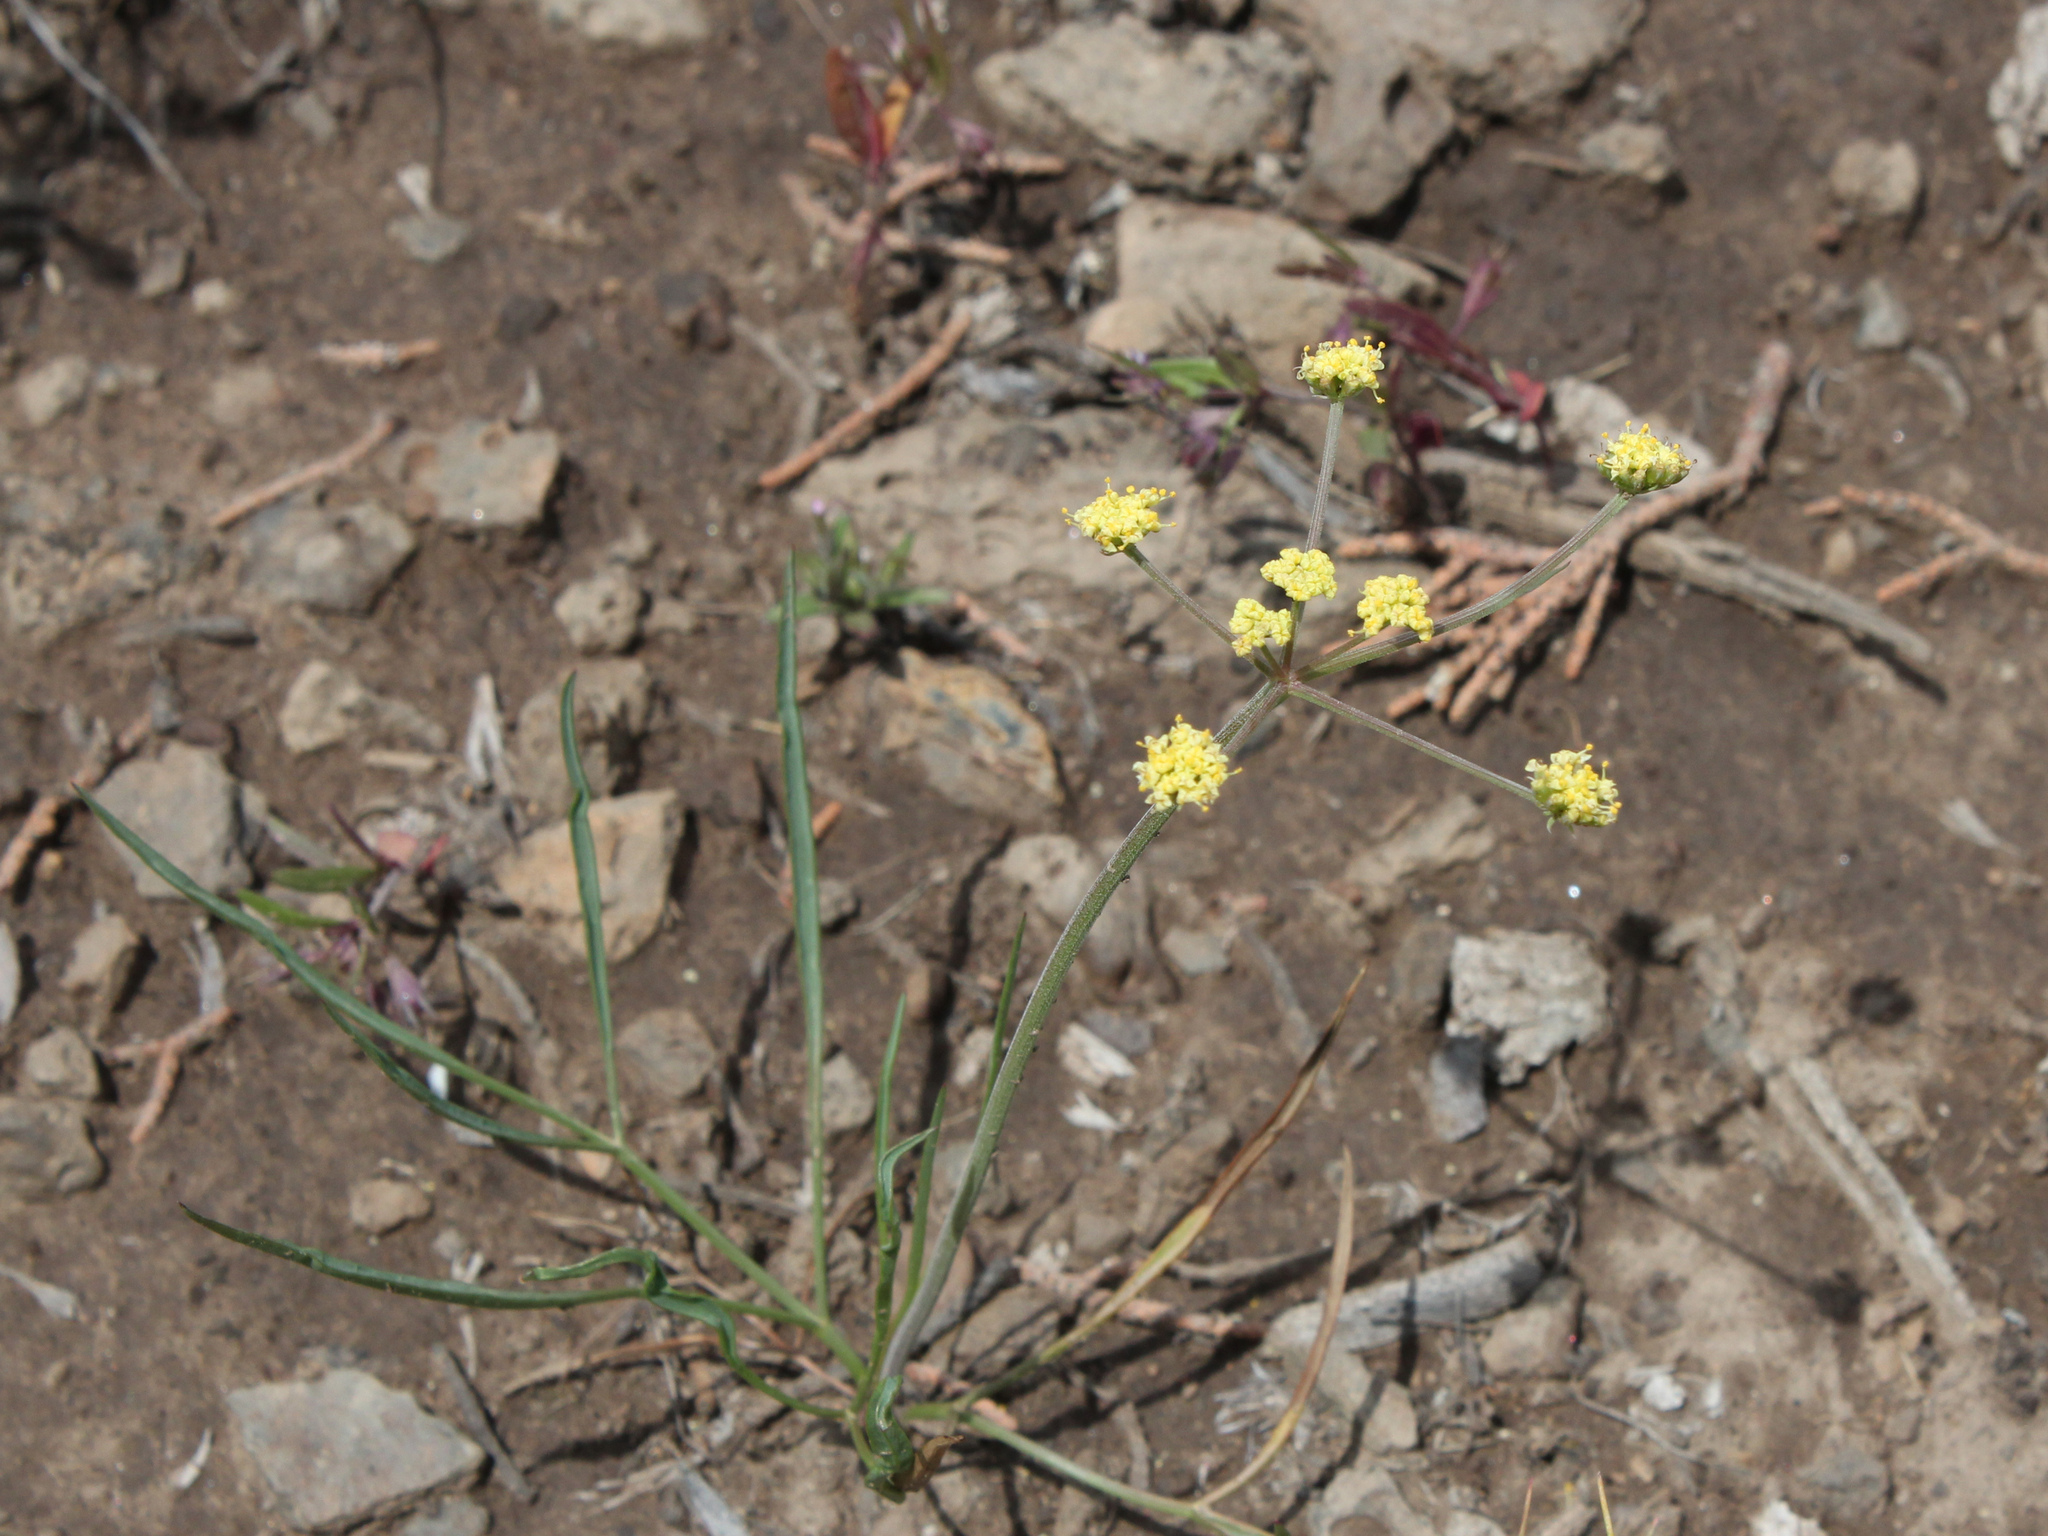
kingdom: Plantae
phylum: Tracheophyta
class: Magnoliopsida
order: Apiales
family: Apiaceae
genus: Lomatium
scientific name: Lomatium simplex
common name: Great basin biscuitroot
